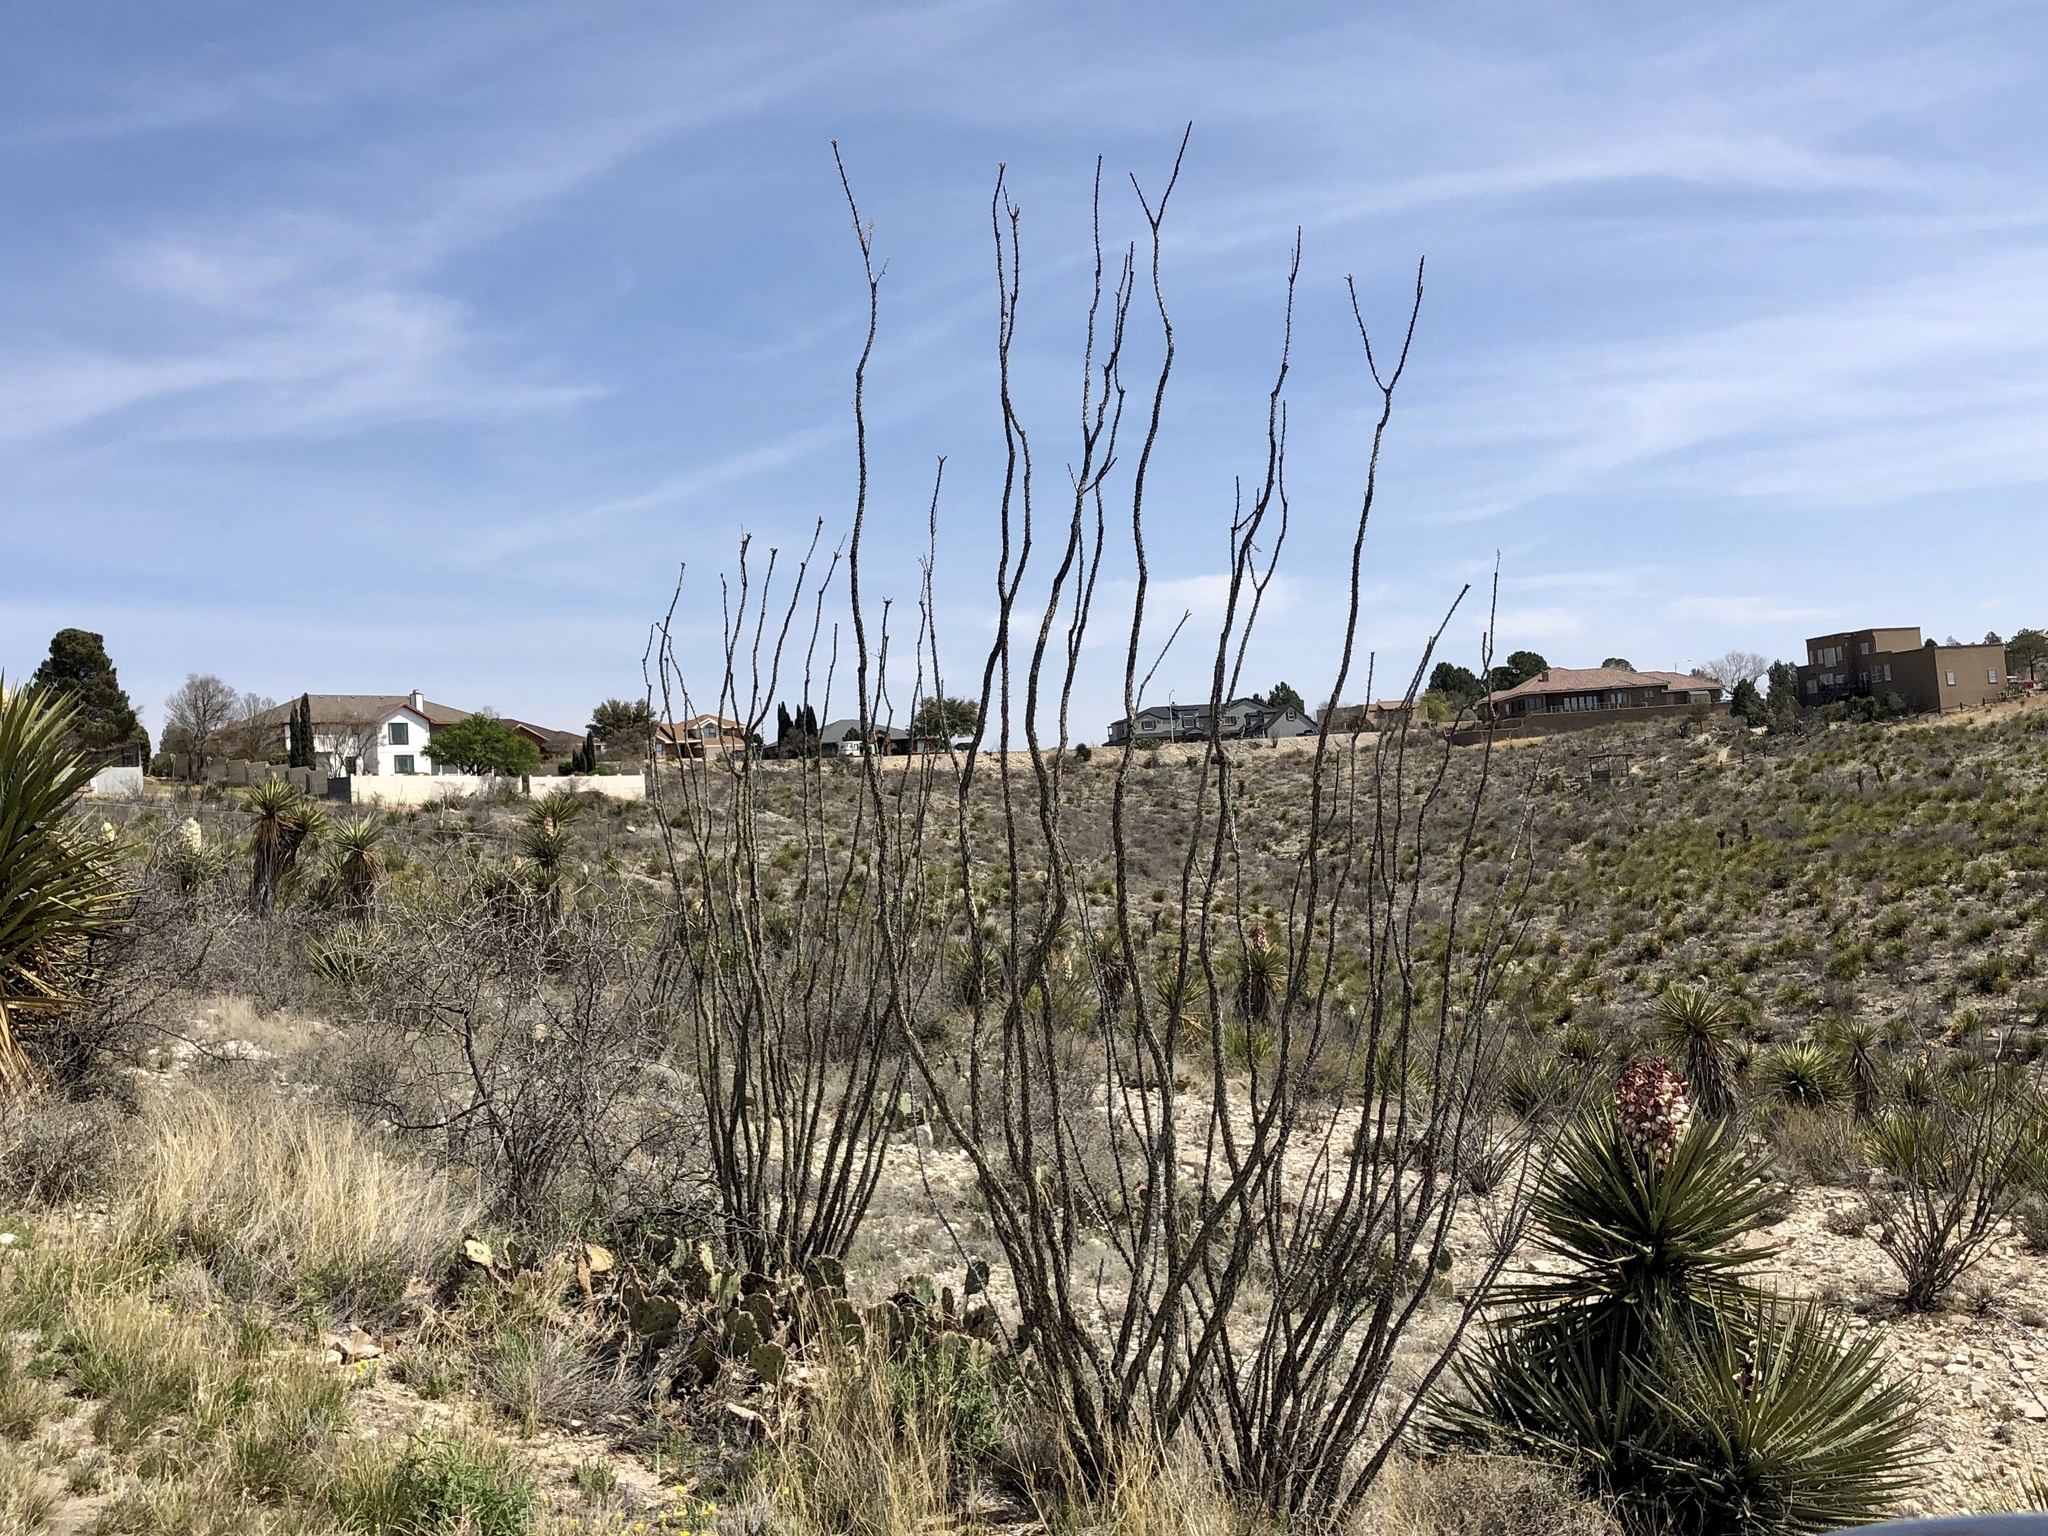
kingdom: Plantae
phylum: Tracheophyta
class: Magnoliopsida
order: Ericales
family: Fouquieriaceae
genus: Fouquieria
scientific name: Fouquieria splendens
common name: Vine-cactus
